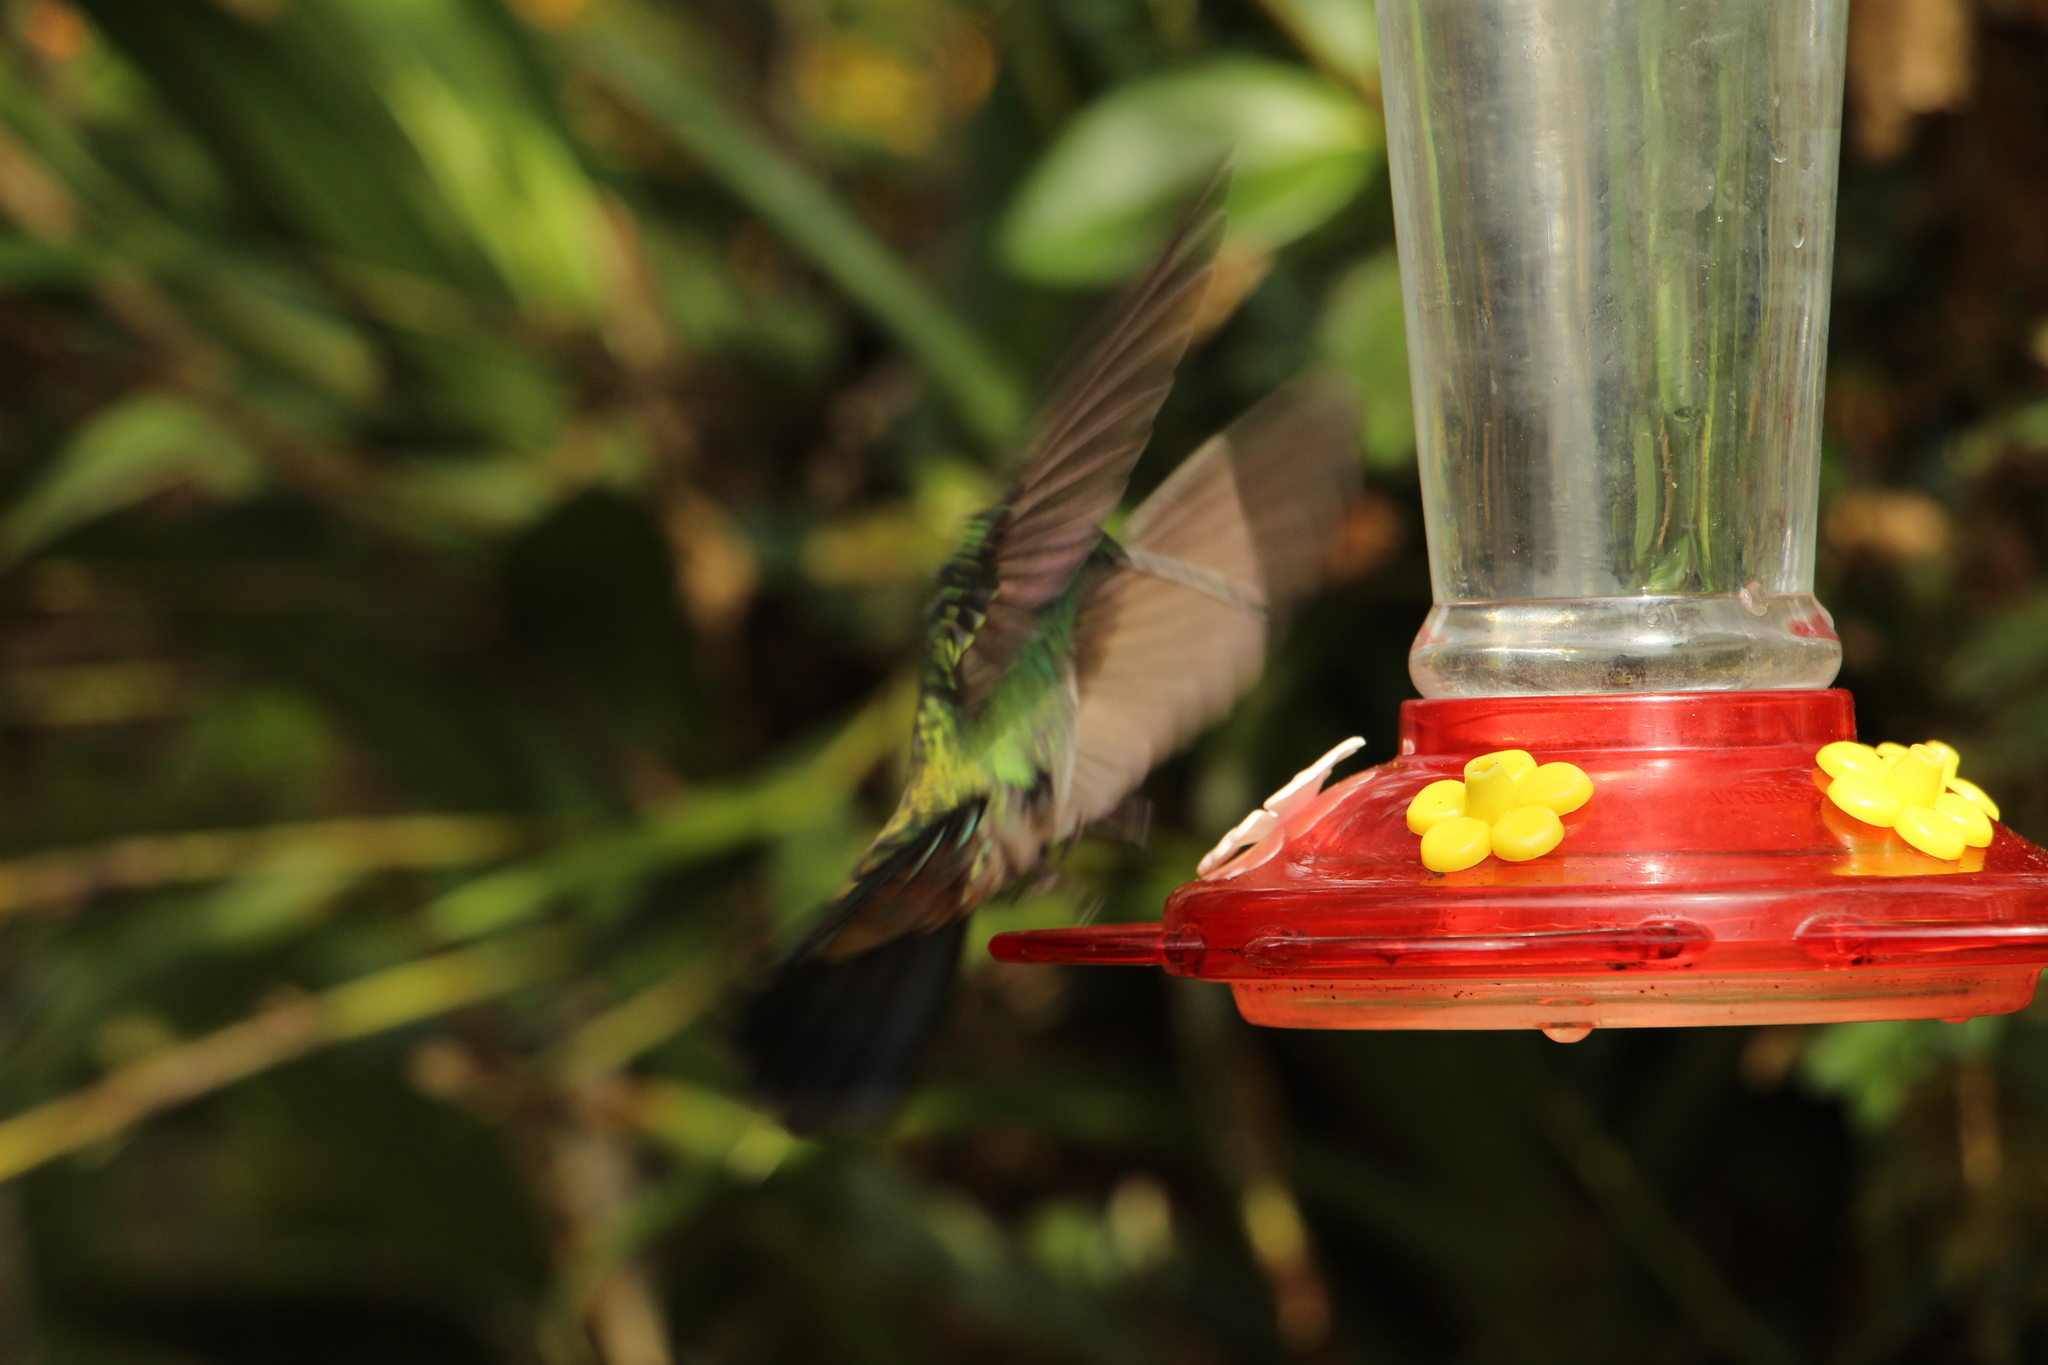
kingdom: Animalia
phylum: Chordata
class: Aves
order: Apodiformes
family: Trochilidae
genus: Colibri
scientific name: Colibri cyanotus
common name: Lesser violetear
